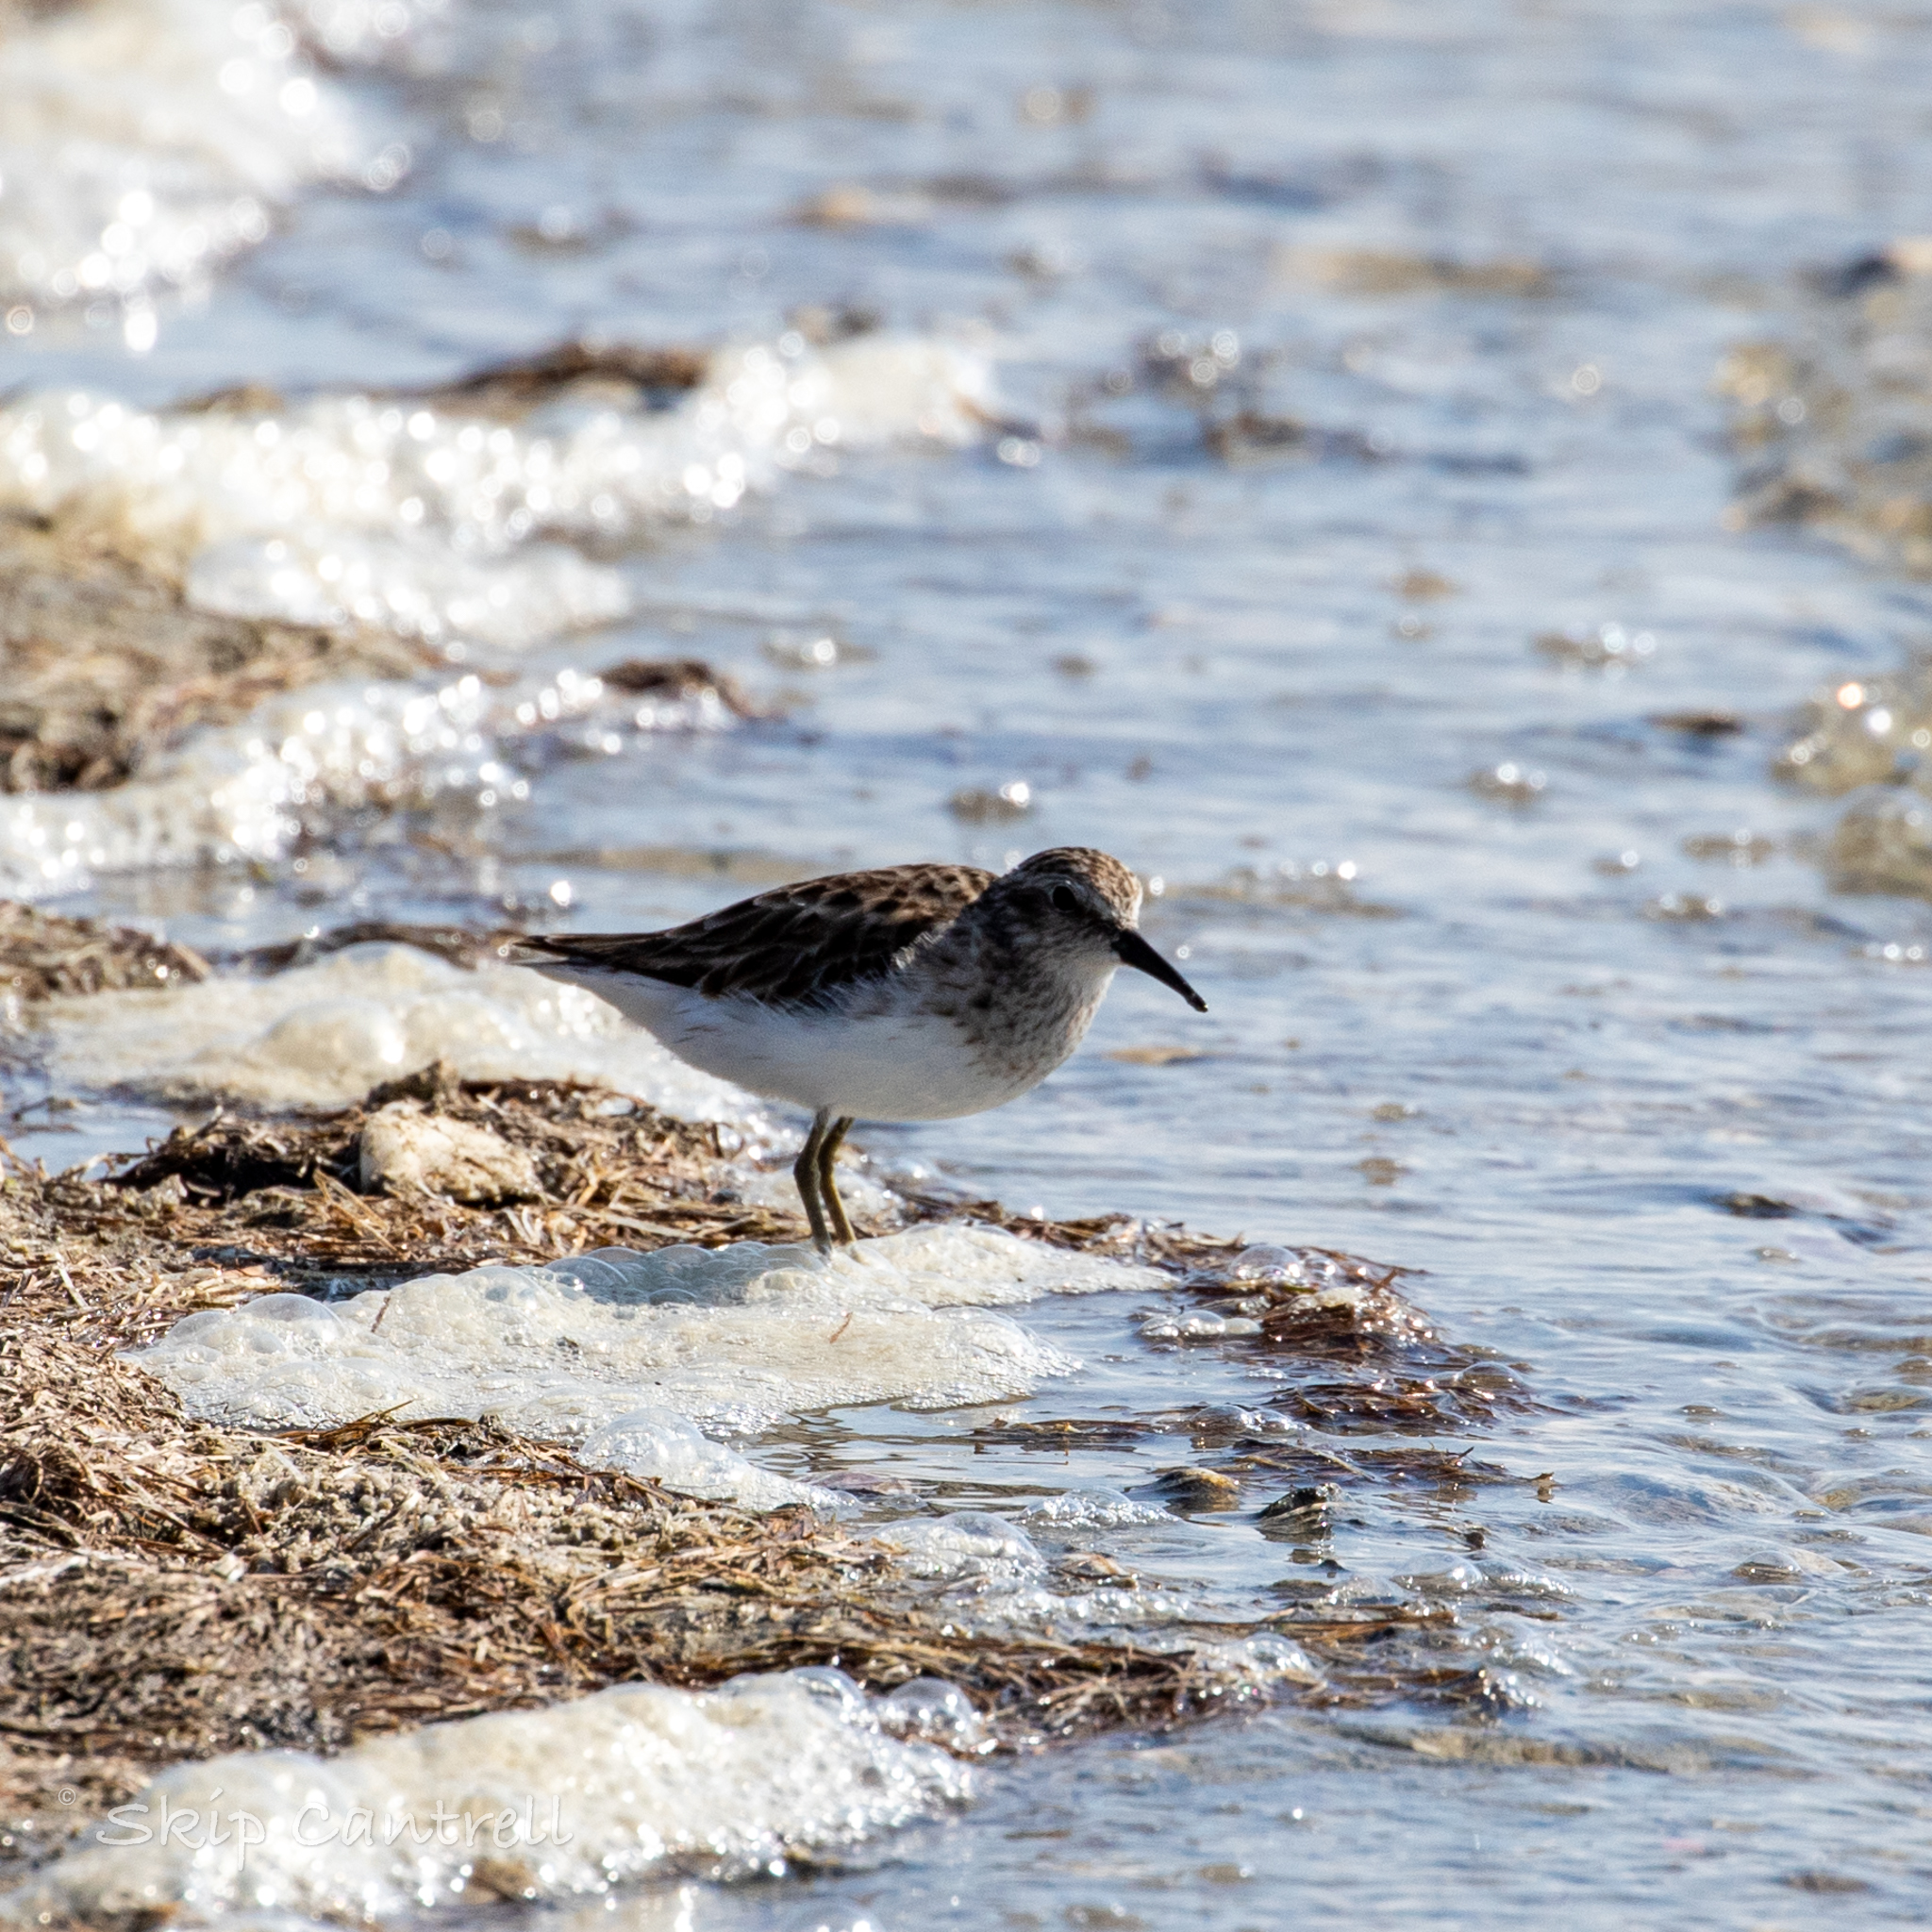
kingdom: Animalia
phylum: Chordata
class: Aves
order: Charadriiformes
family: Scolopacidae
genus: Calidris
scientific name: Calidris minutilla
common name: Least sandpiper
